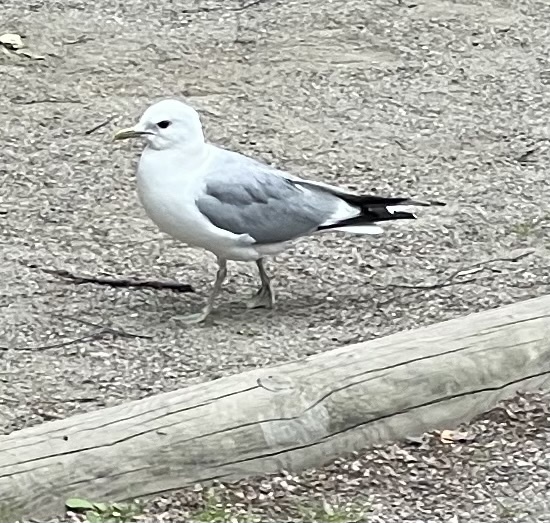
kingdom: Animalia
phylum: Chordata
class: Aves
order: Charadriiformes
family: Laridae
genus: Larus
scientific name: Larus canus
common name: Mew gull
